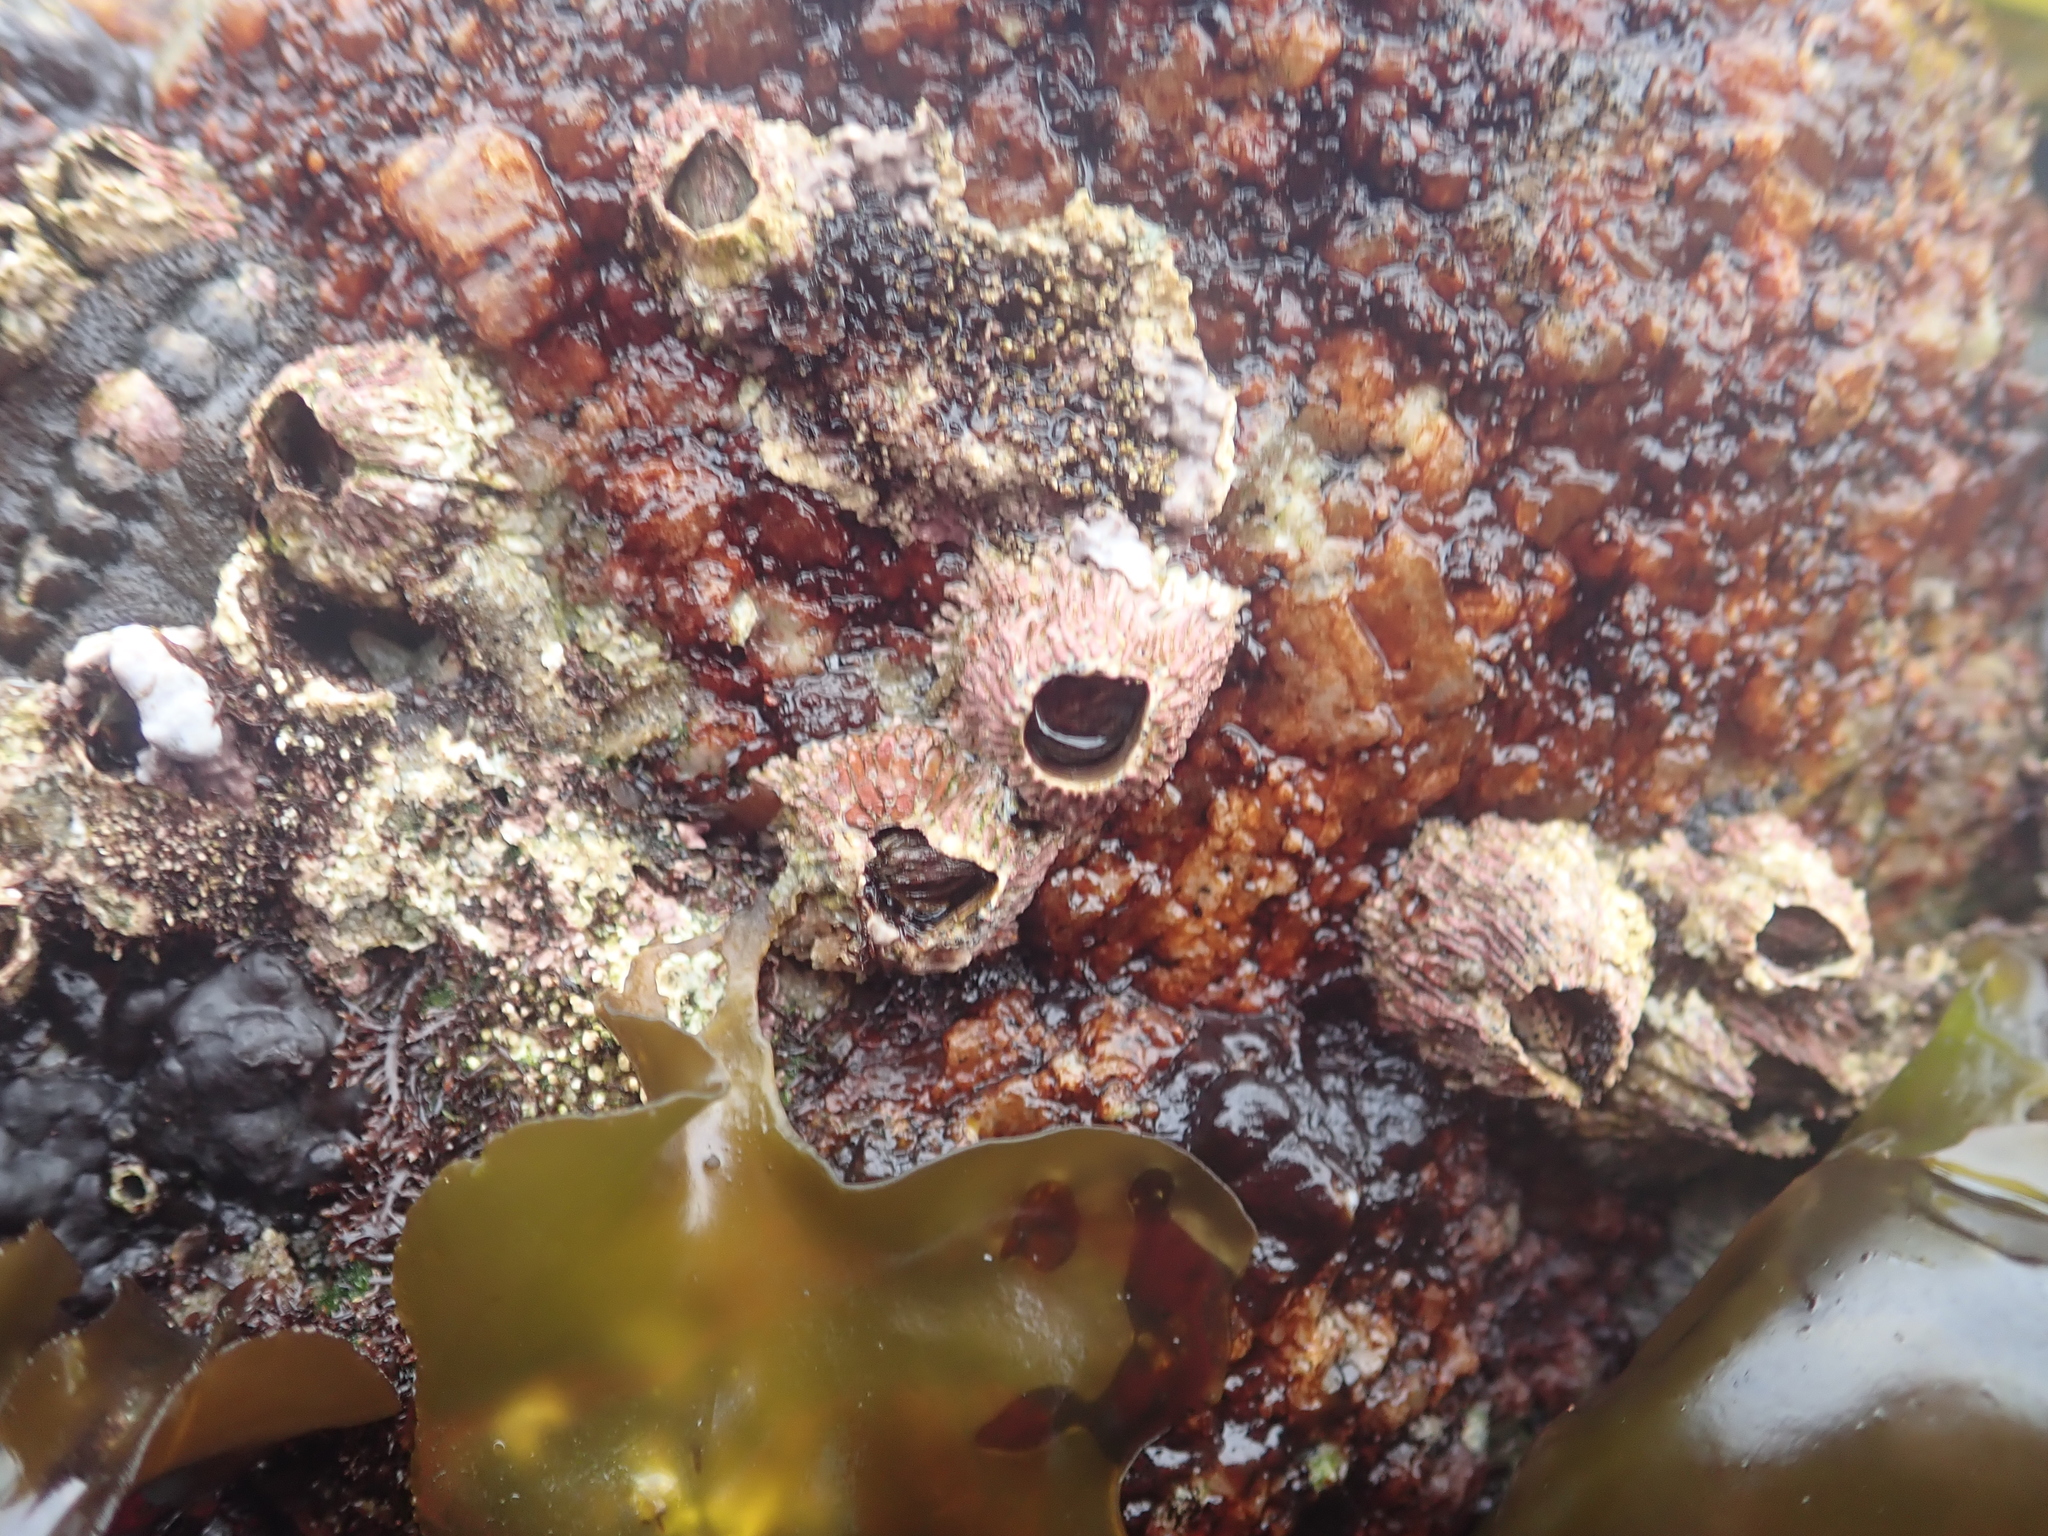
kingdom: Animalia
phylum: Arthropoda
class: Maxillopoda
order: Sessilia
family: Tetraclitidae
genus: Tetraclita
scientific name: Tetraclita rubescens
